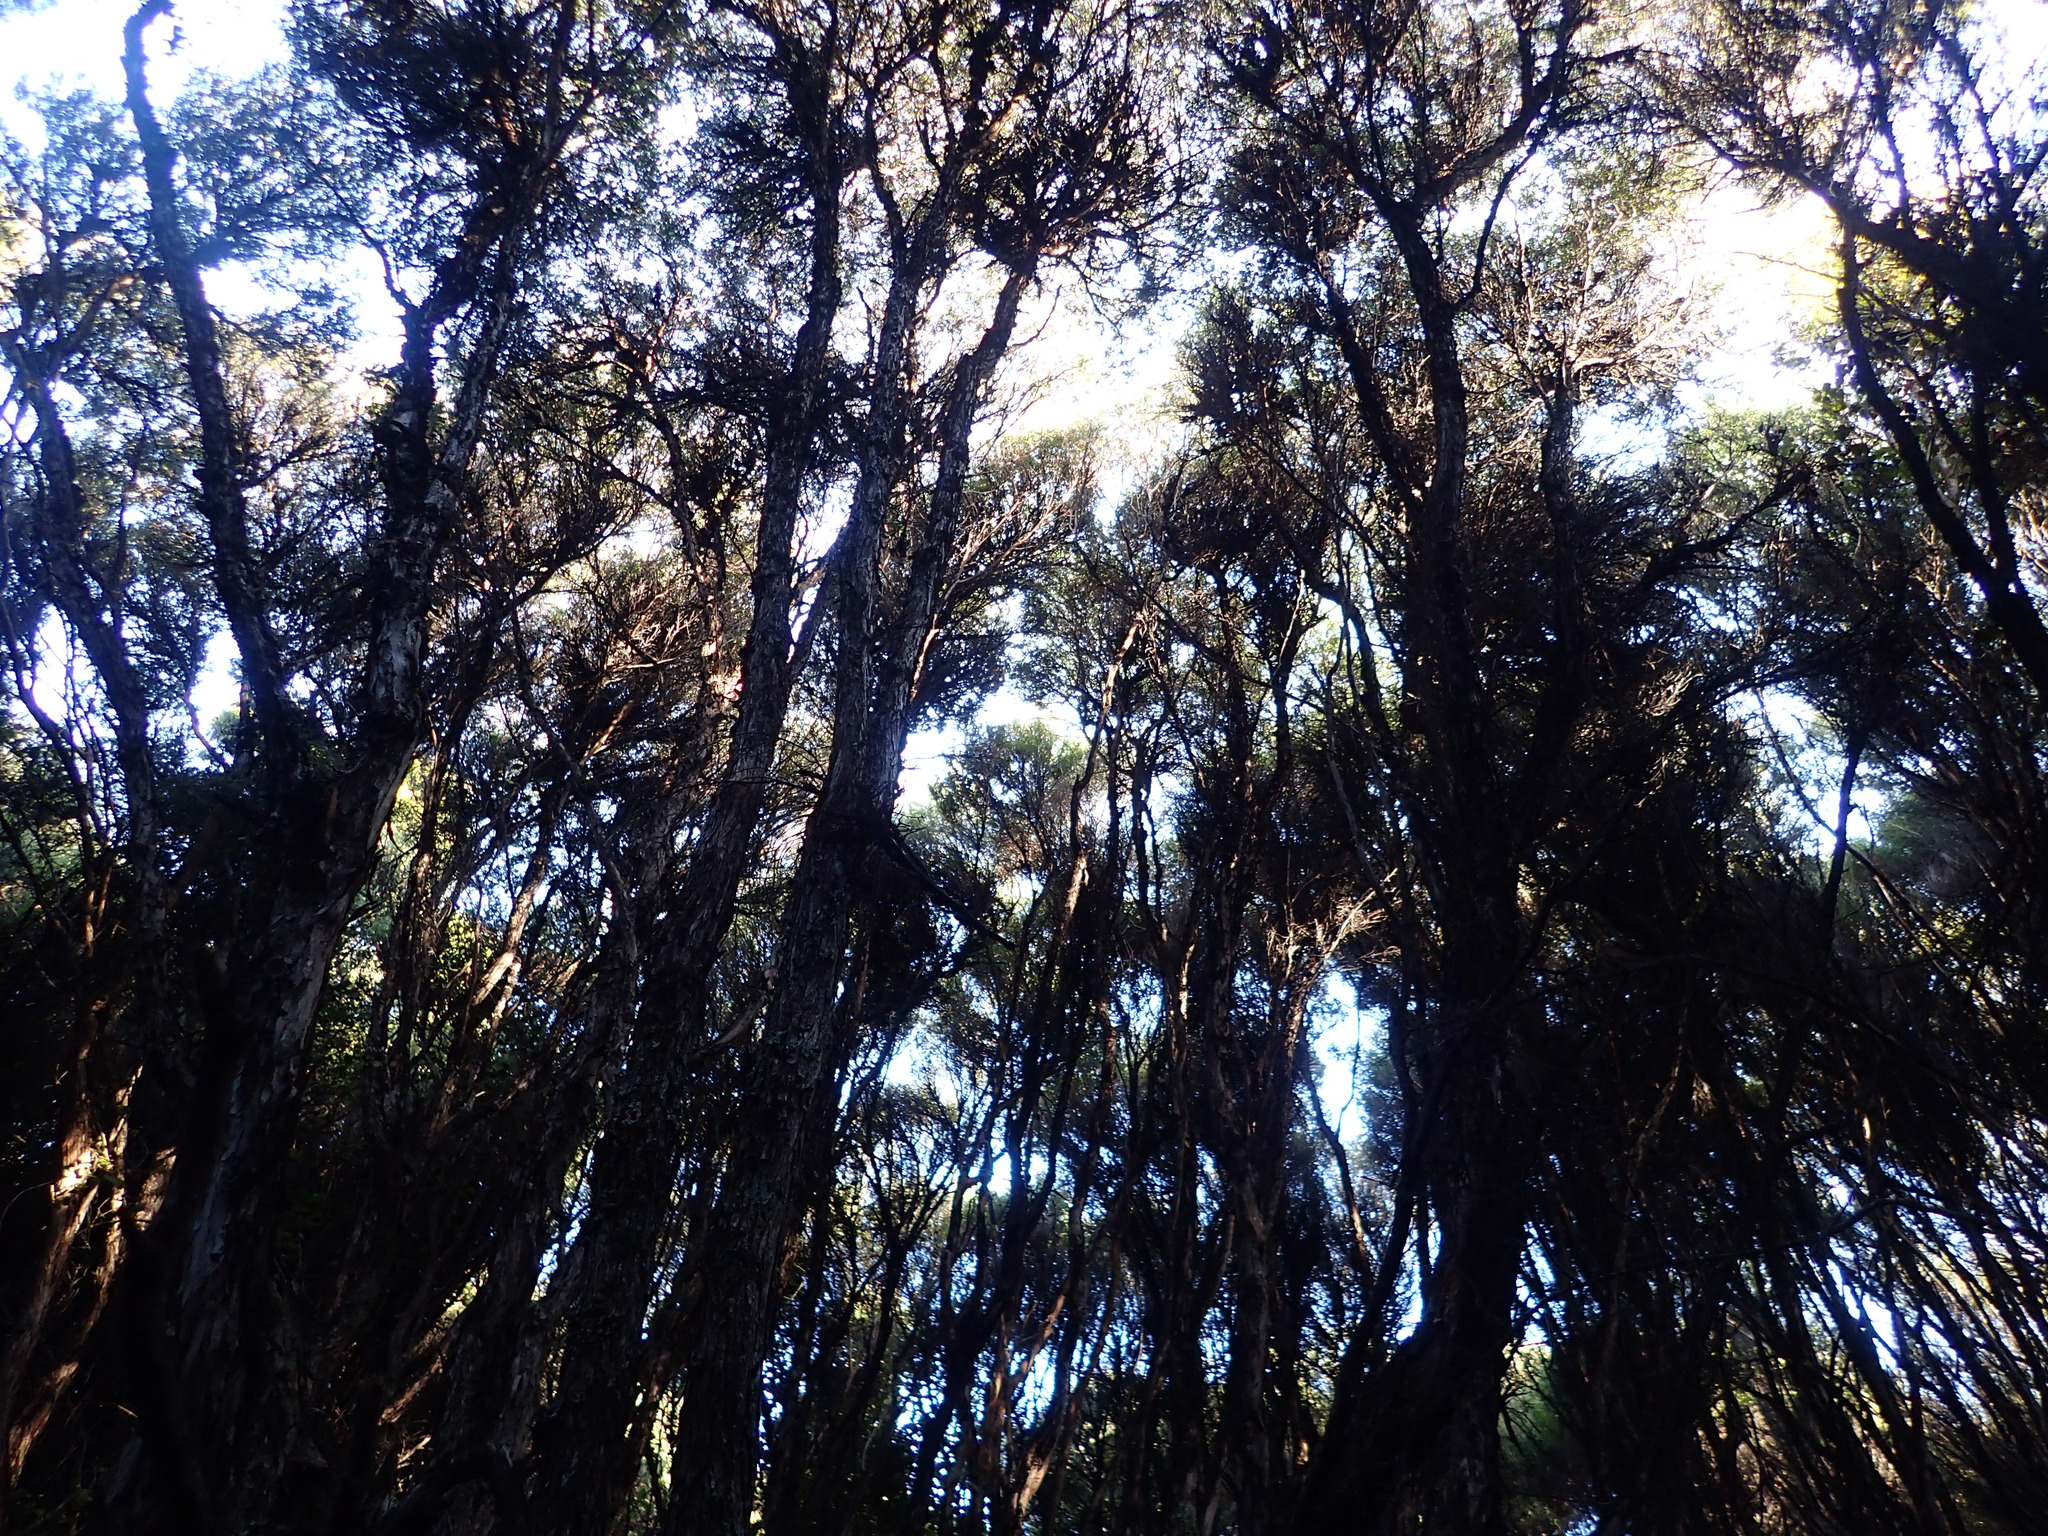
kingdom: Plantae
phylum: Tracheophyta
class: Magnoliopsida
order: Myrtales
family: Myrtaceae
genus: Leptospermum
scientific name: Leptospermum scoparium
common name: Broom tea-tree
